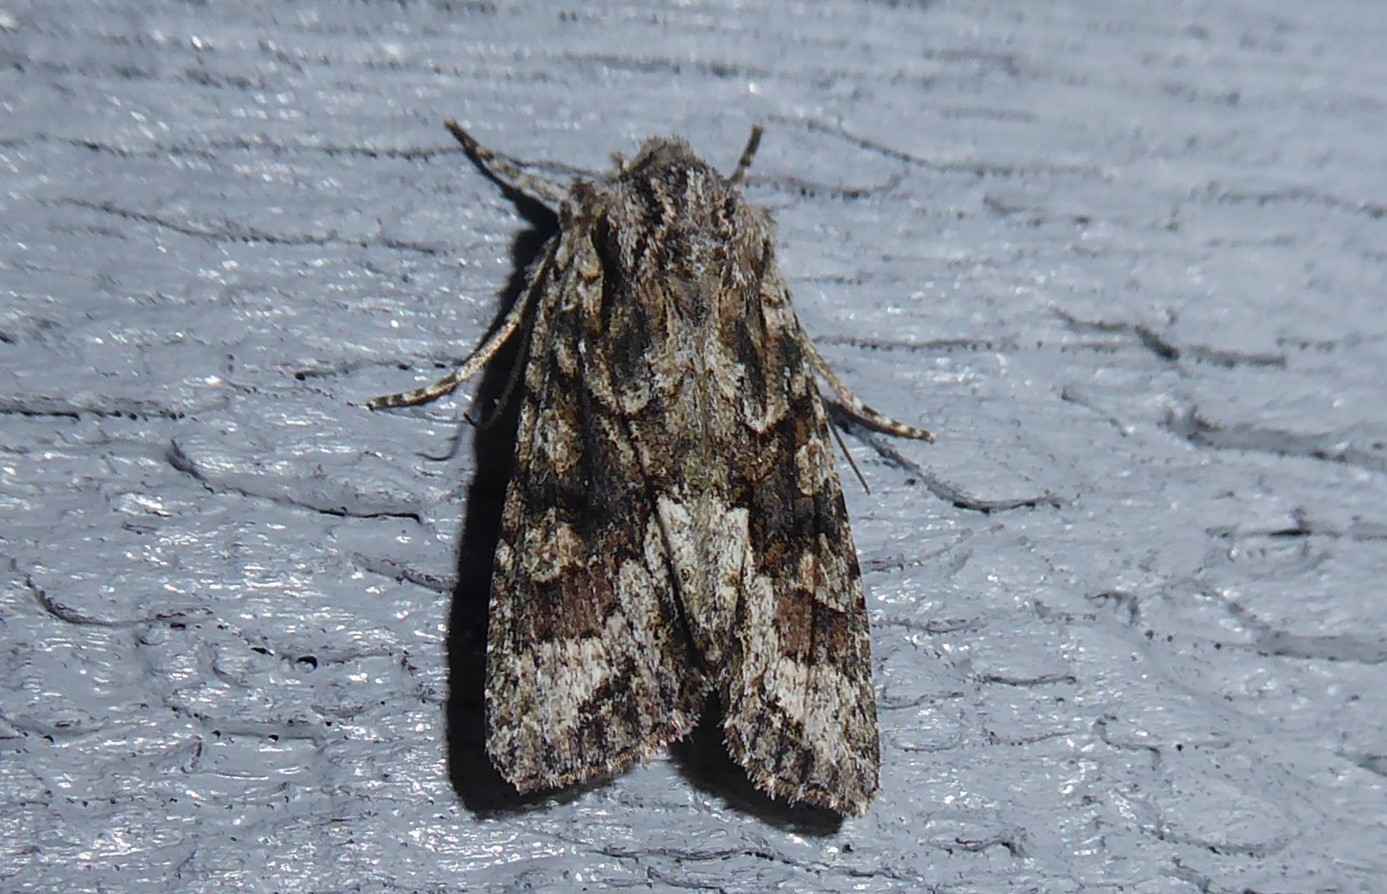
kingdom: Animalia
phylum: Arthropoda
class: Insecta
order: Lepidoptera
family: Noctuidae
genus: Ichneutica
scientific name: Ichneutica mutans
